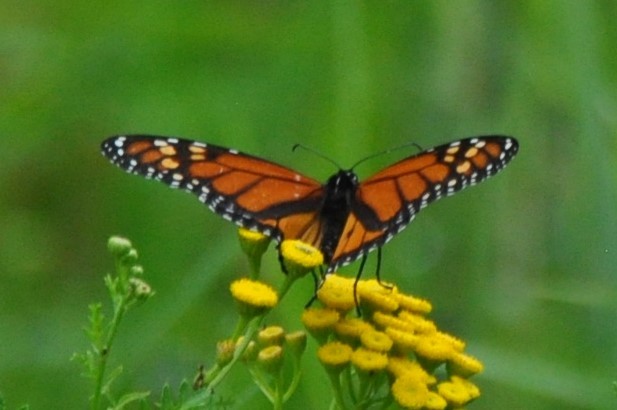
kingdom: Animalia
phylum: Arthropoda
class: Insecta
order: Lepidoptera
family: Nymphalidae
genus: Danaus
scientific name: Danaus plexippus
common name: Monarch
